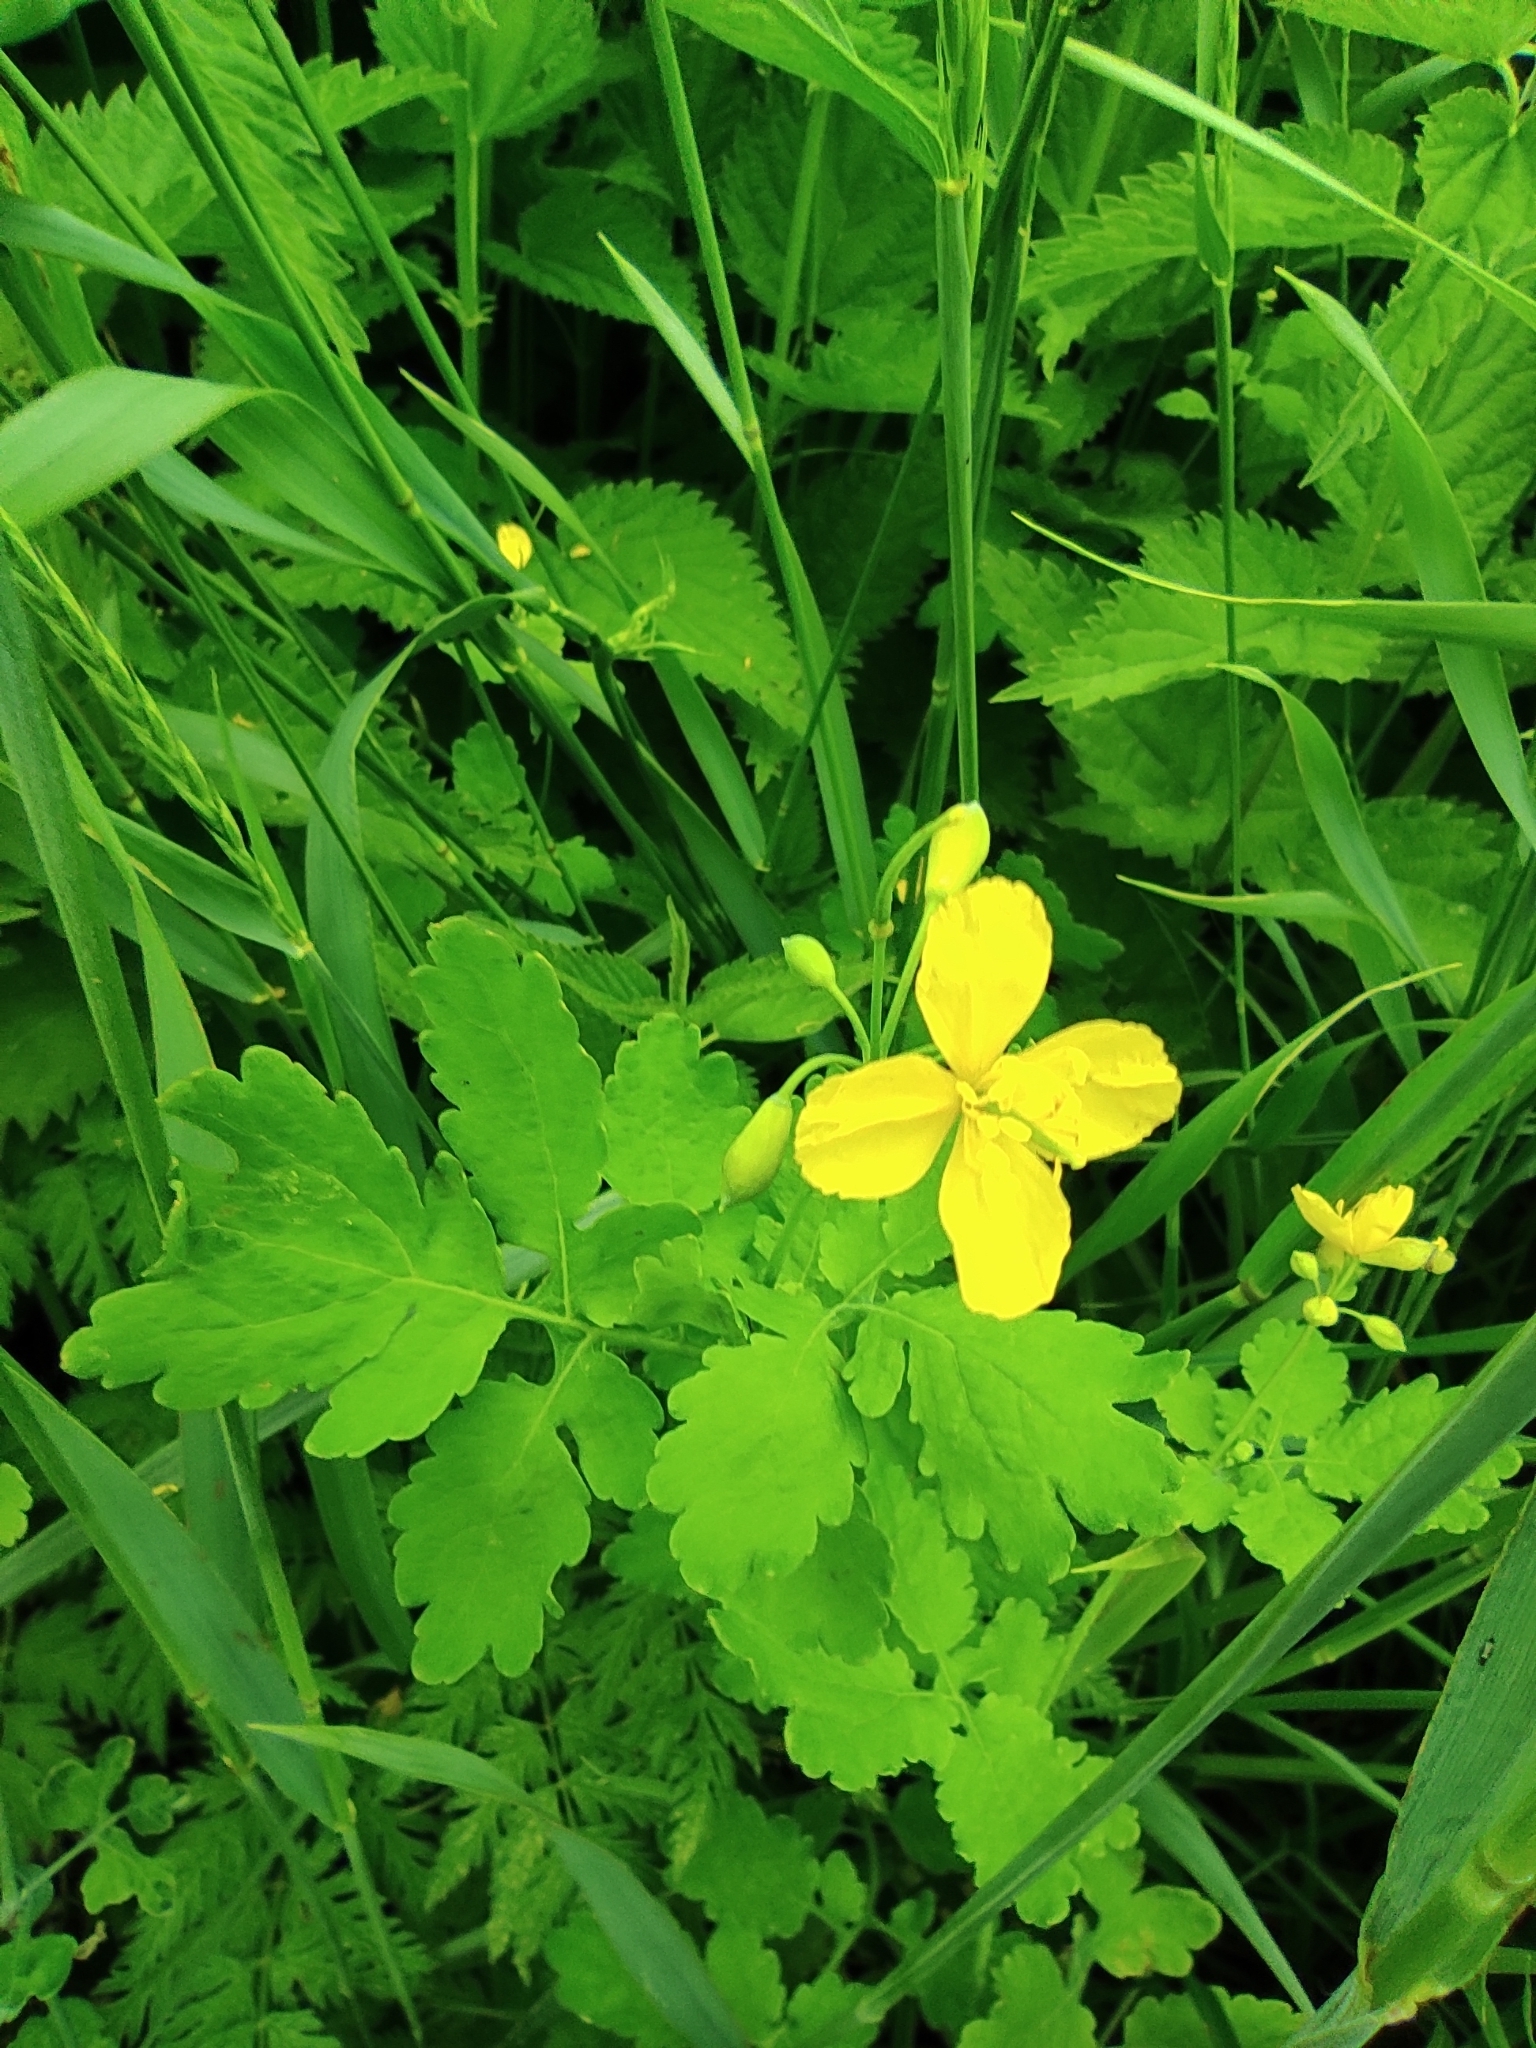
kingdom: Plantae
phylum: Tracheophyta
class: Magnoliopsida
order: Ranunculales
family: Papaveraceae
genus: Chelidonium
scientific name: Chelidonium majus
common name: Greater celandine
